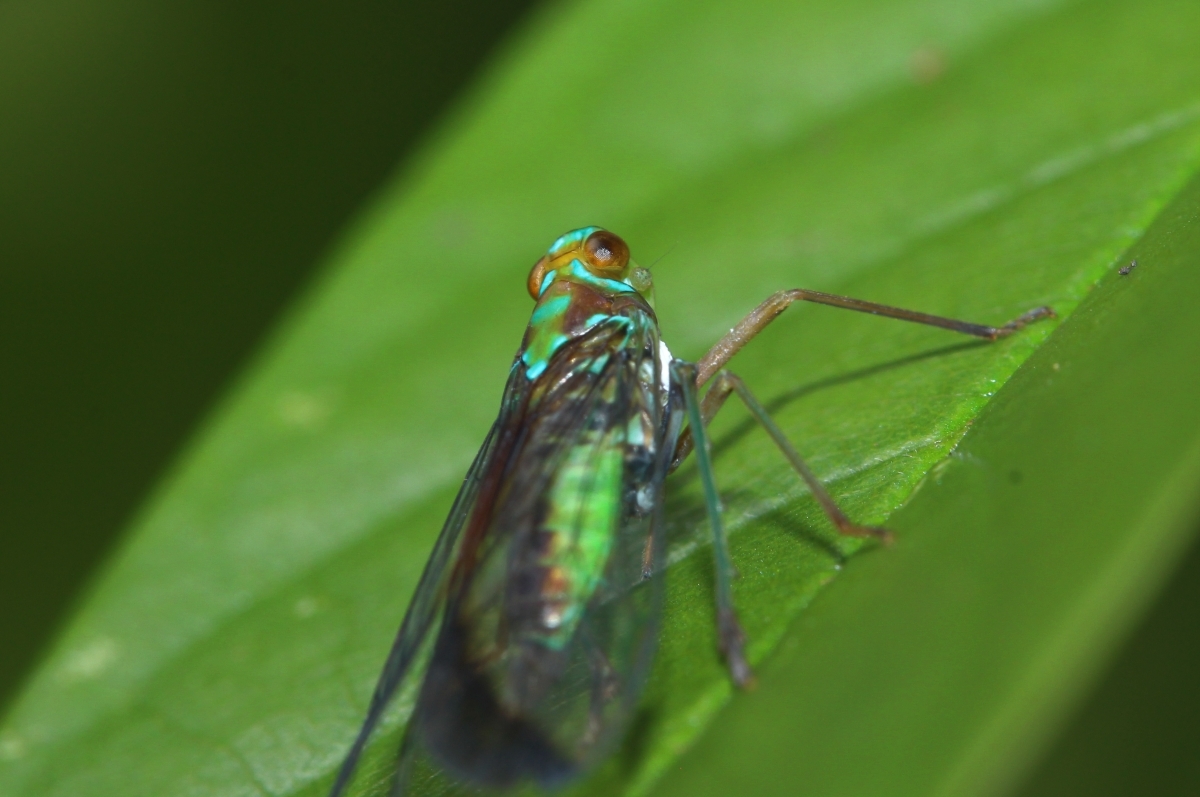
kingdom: Animalia
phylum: Arthropoda
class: Insecta
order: Hemiptera
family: Dictyopharidae
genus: Taosa
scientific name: Taosa
